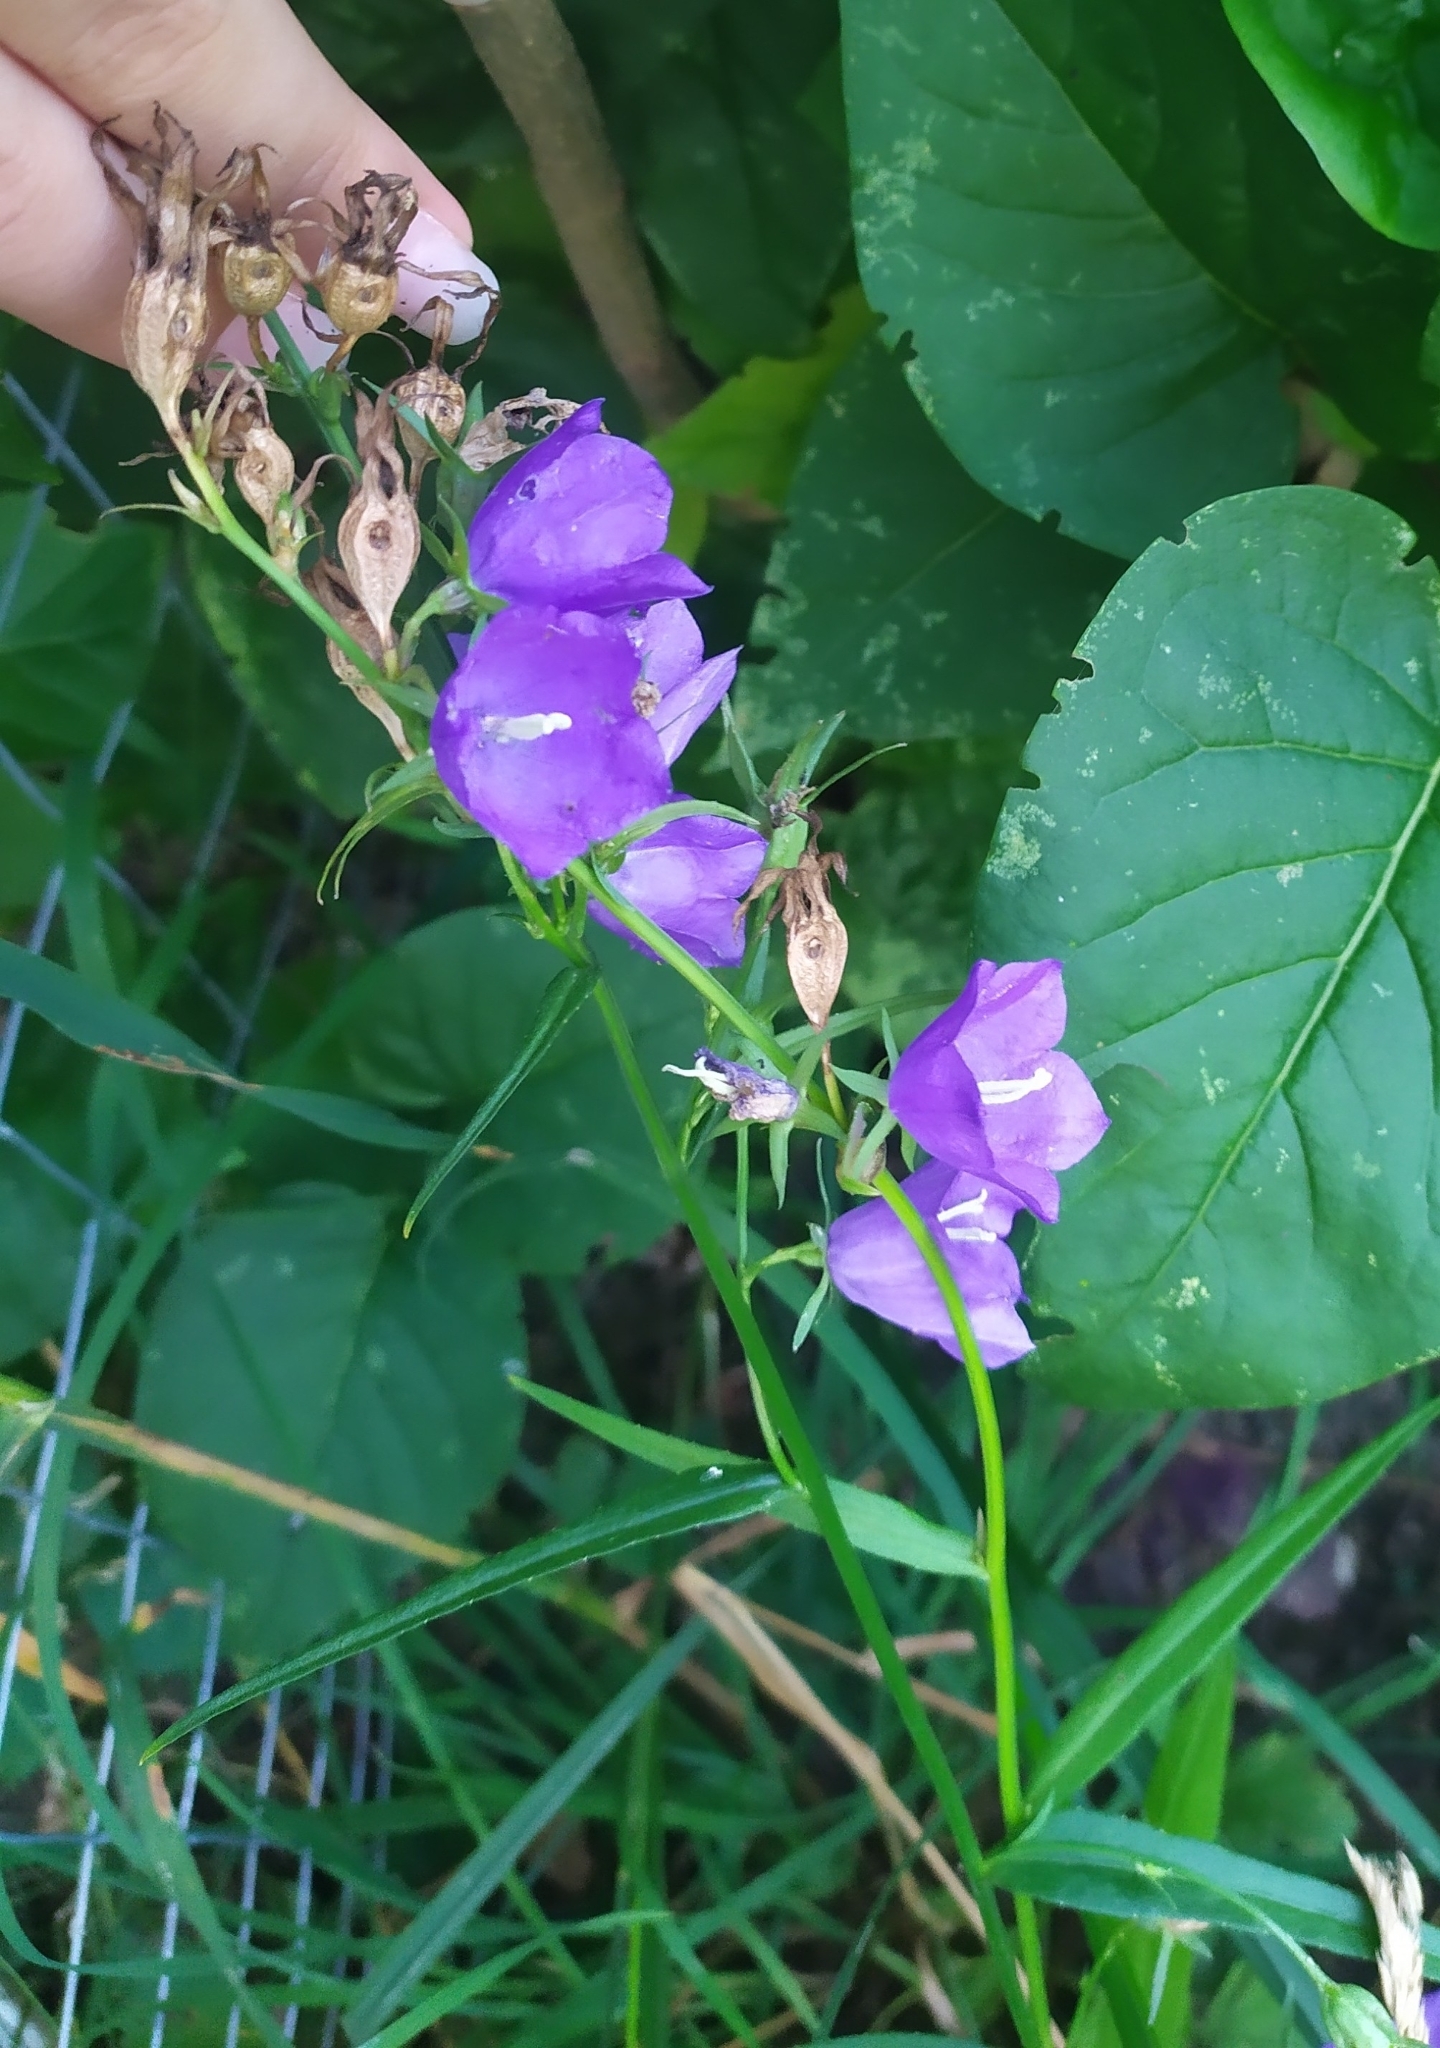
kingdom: Plantae
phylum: Tracheophyta
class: Magnoliopsida
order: Asterales
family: Campanulaceae
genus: Campanula
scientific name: Campanula persicifolia
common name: Peach-leaved bellflower
